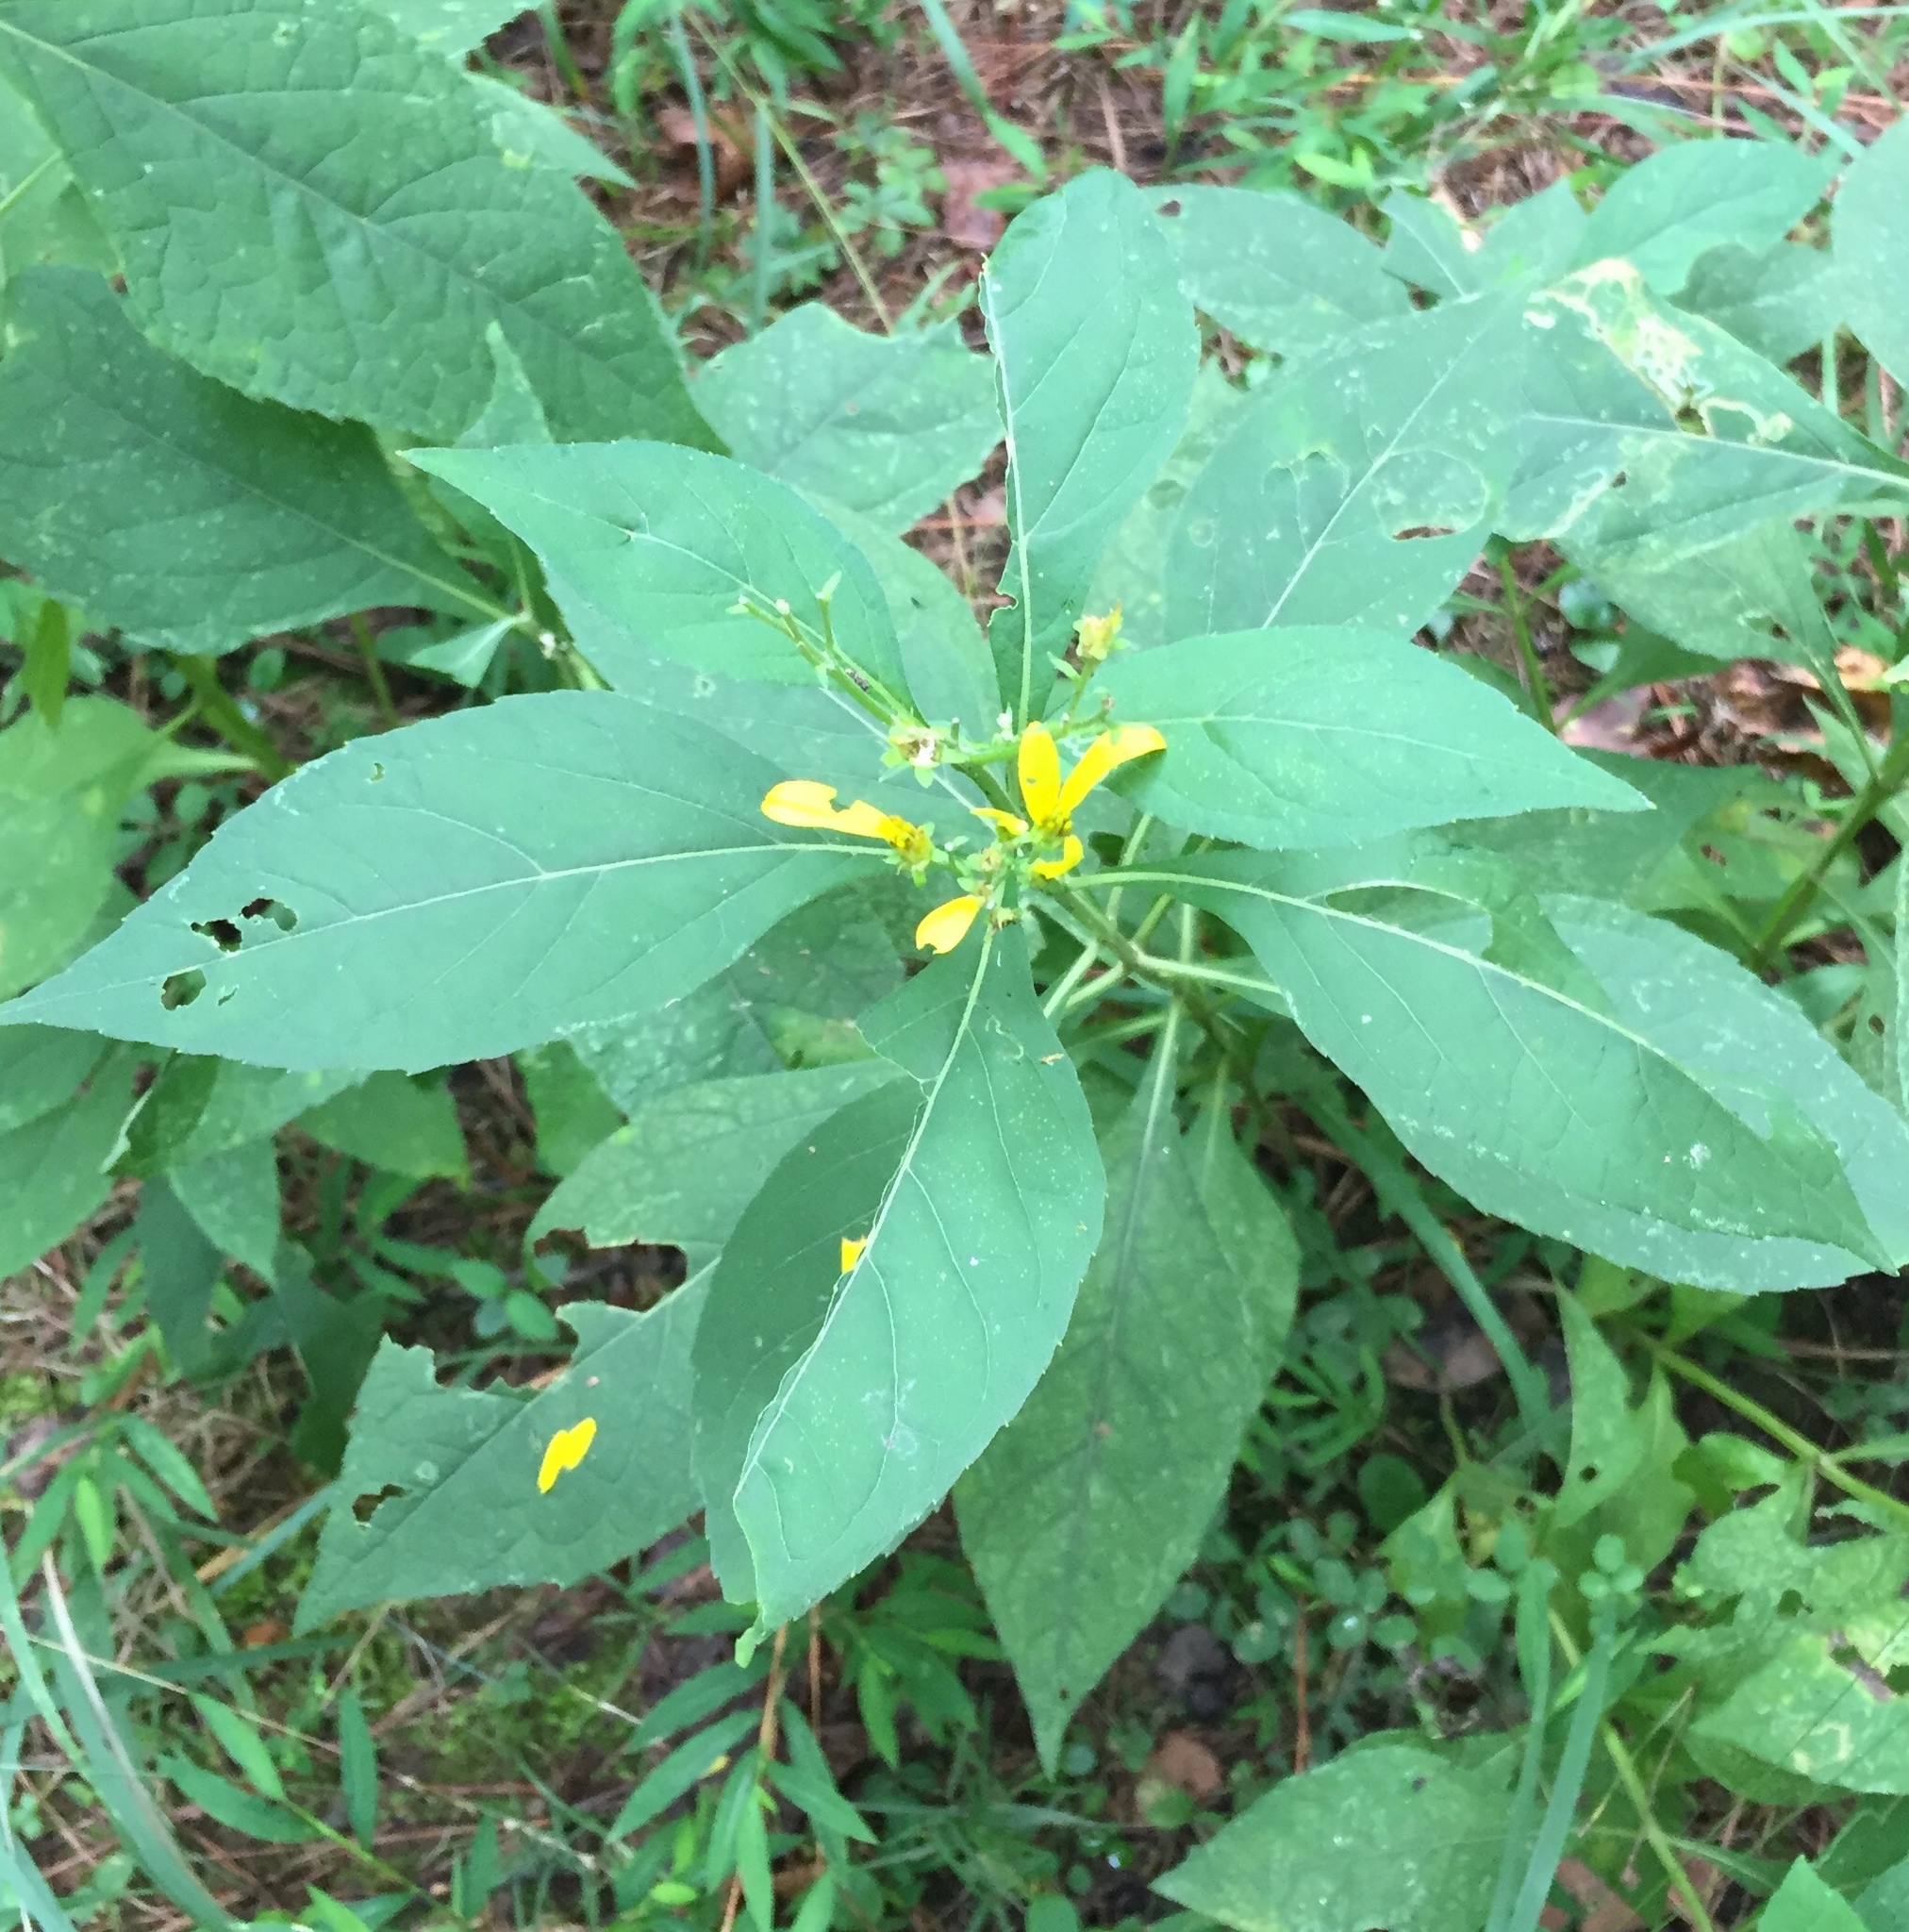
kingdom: Plantae
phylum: Tracheophyta
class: Magnoliopsida
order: Asterales
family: Asteraceae
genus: Verbesina
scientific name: Verbesina occidentalis
